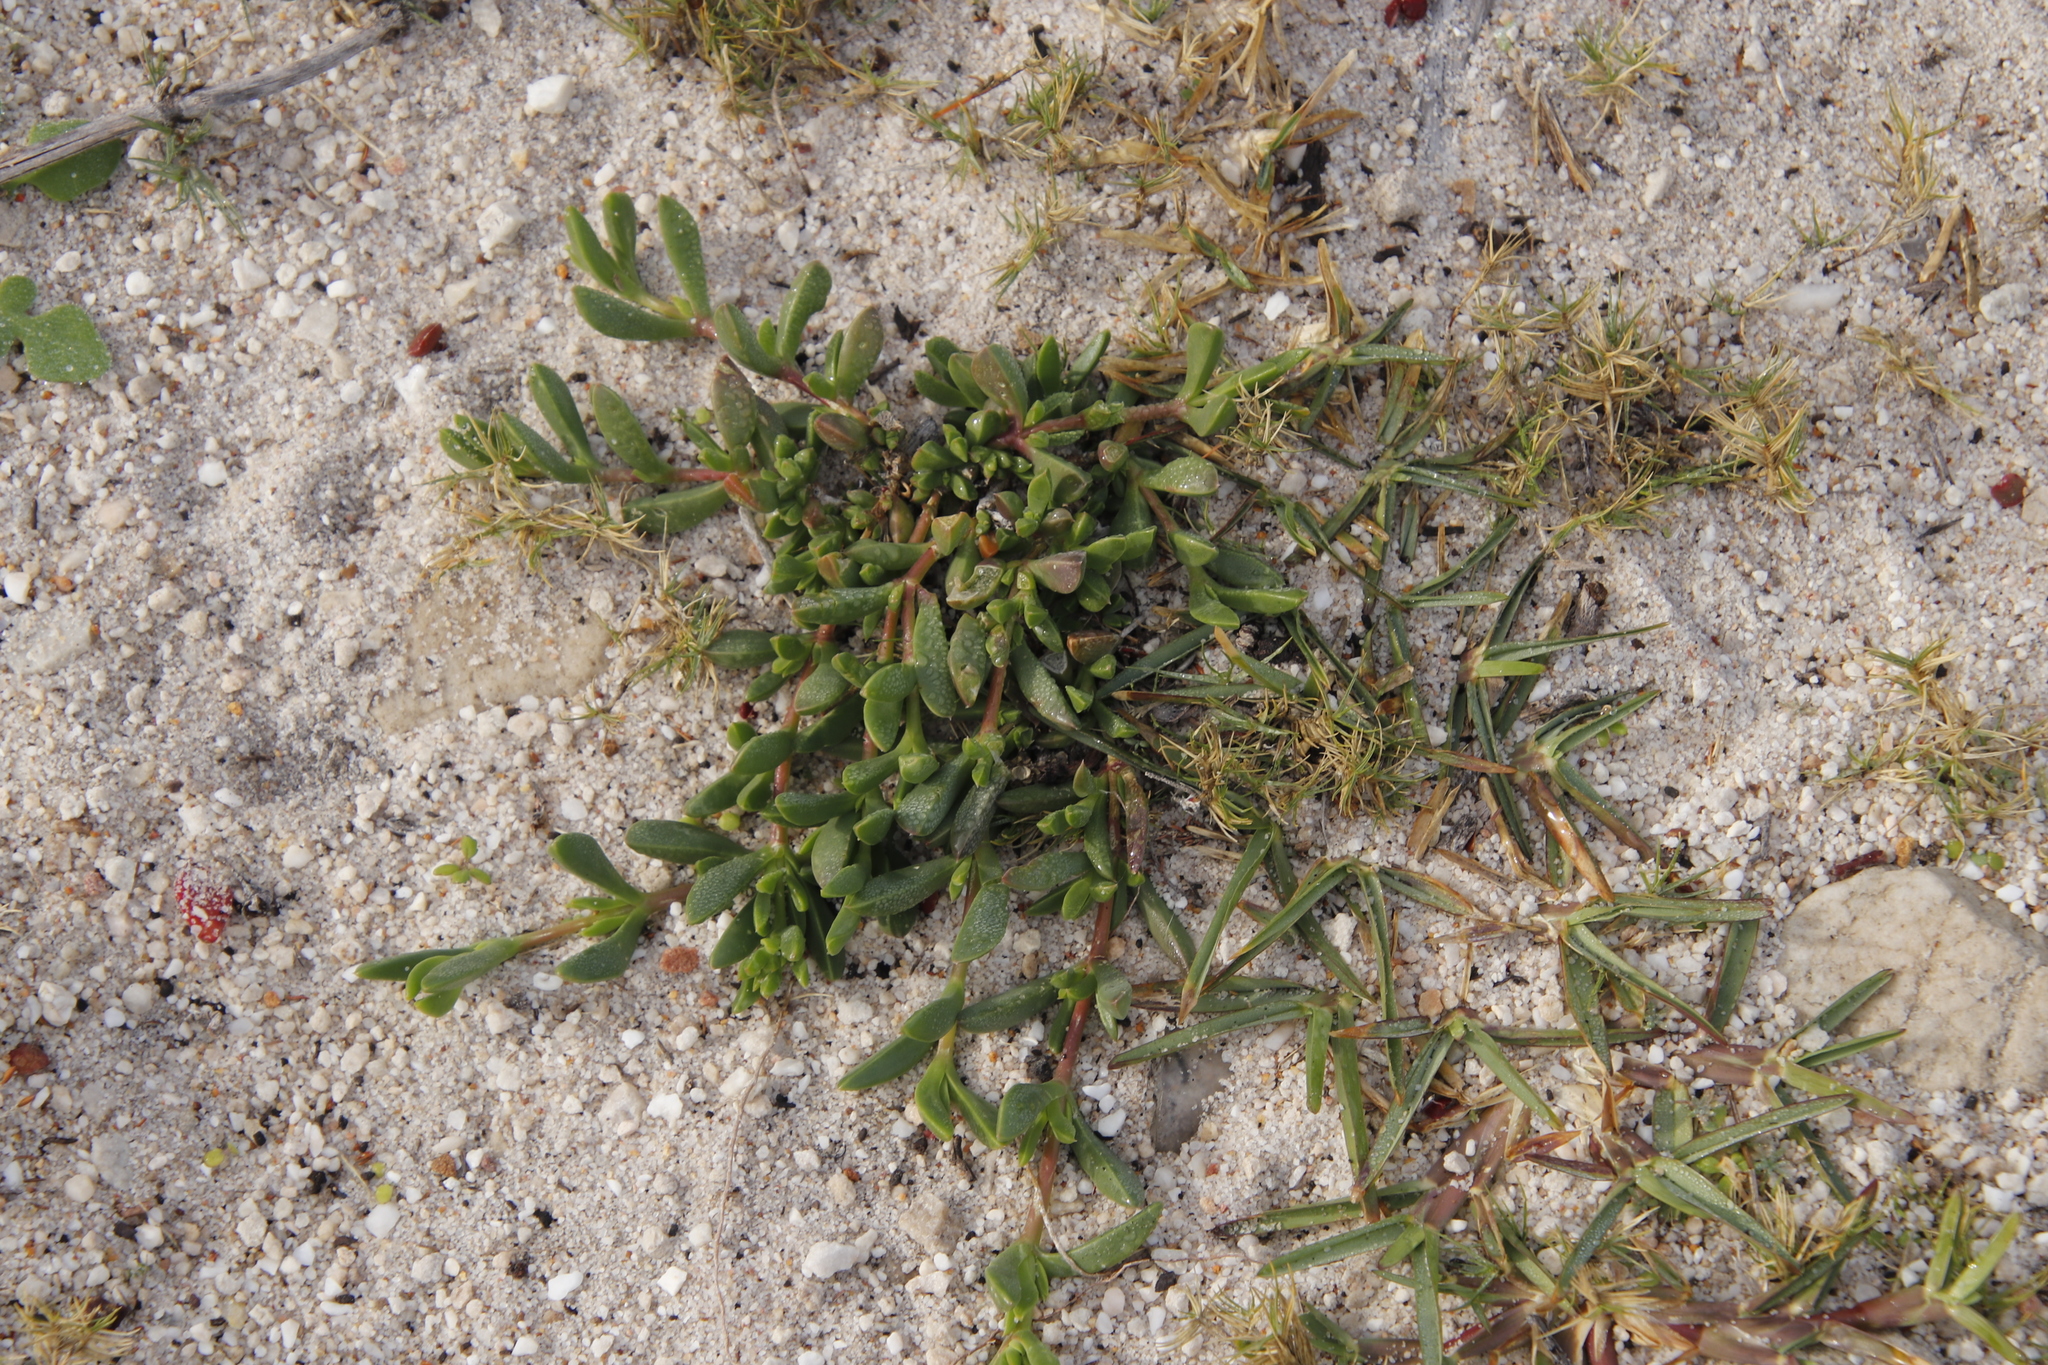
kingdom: Plantae
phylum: Tracheophyta
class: Magnoliopsida
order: Caryophyllales
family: Aizoaceae
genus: Delosperma
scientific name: Delosperma guthriei
